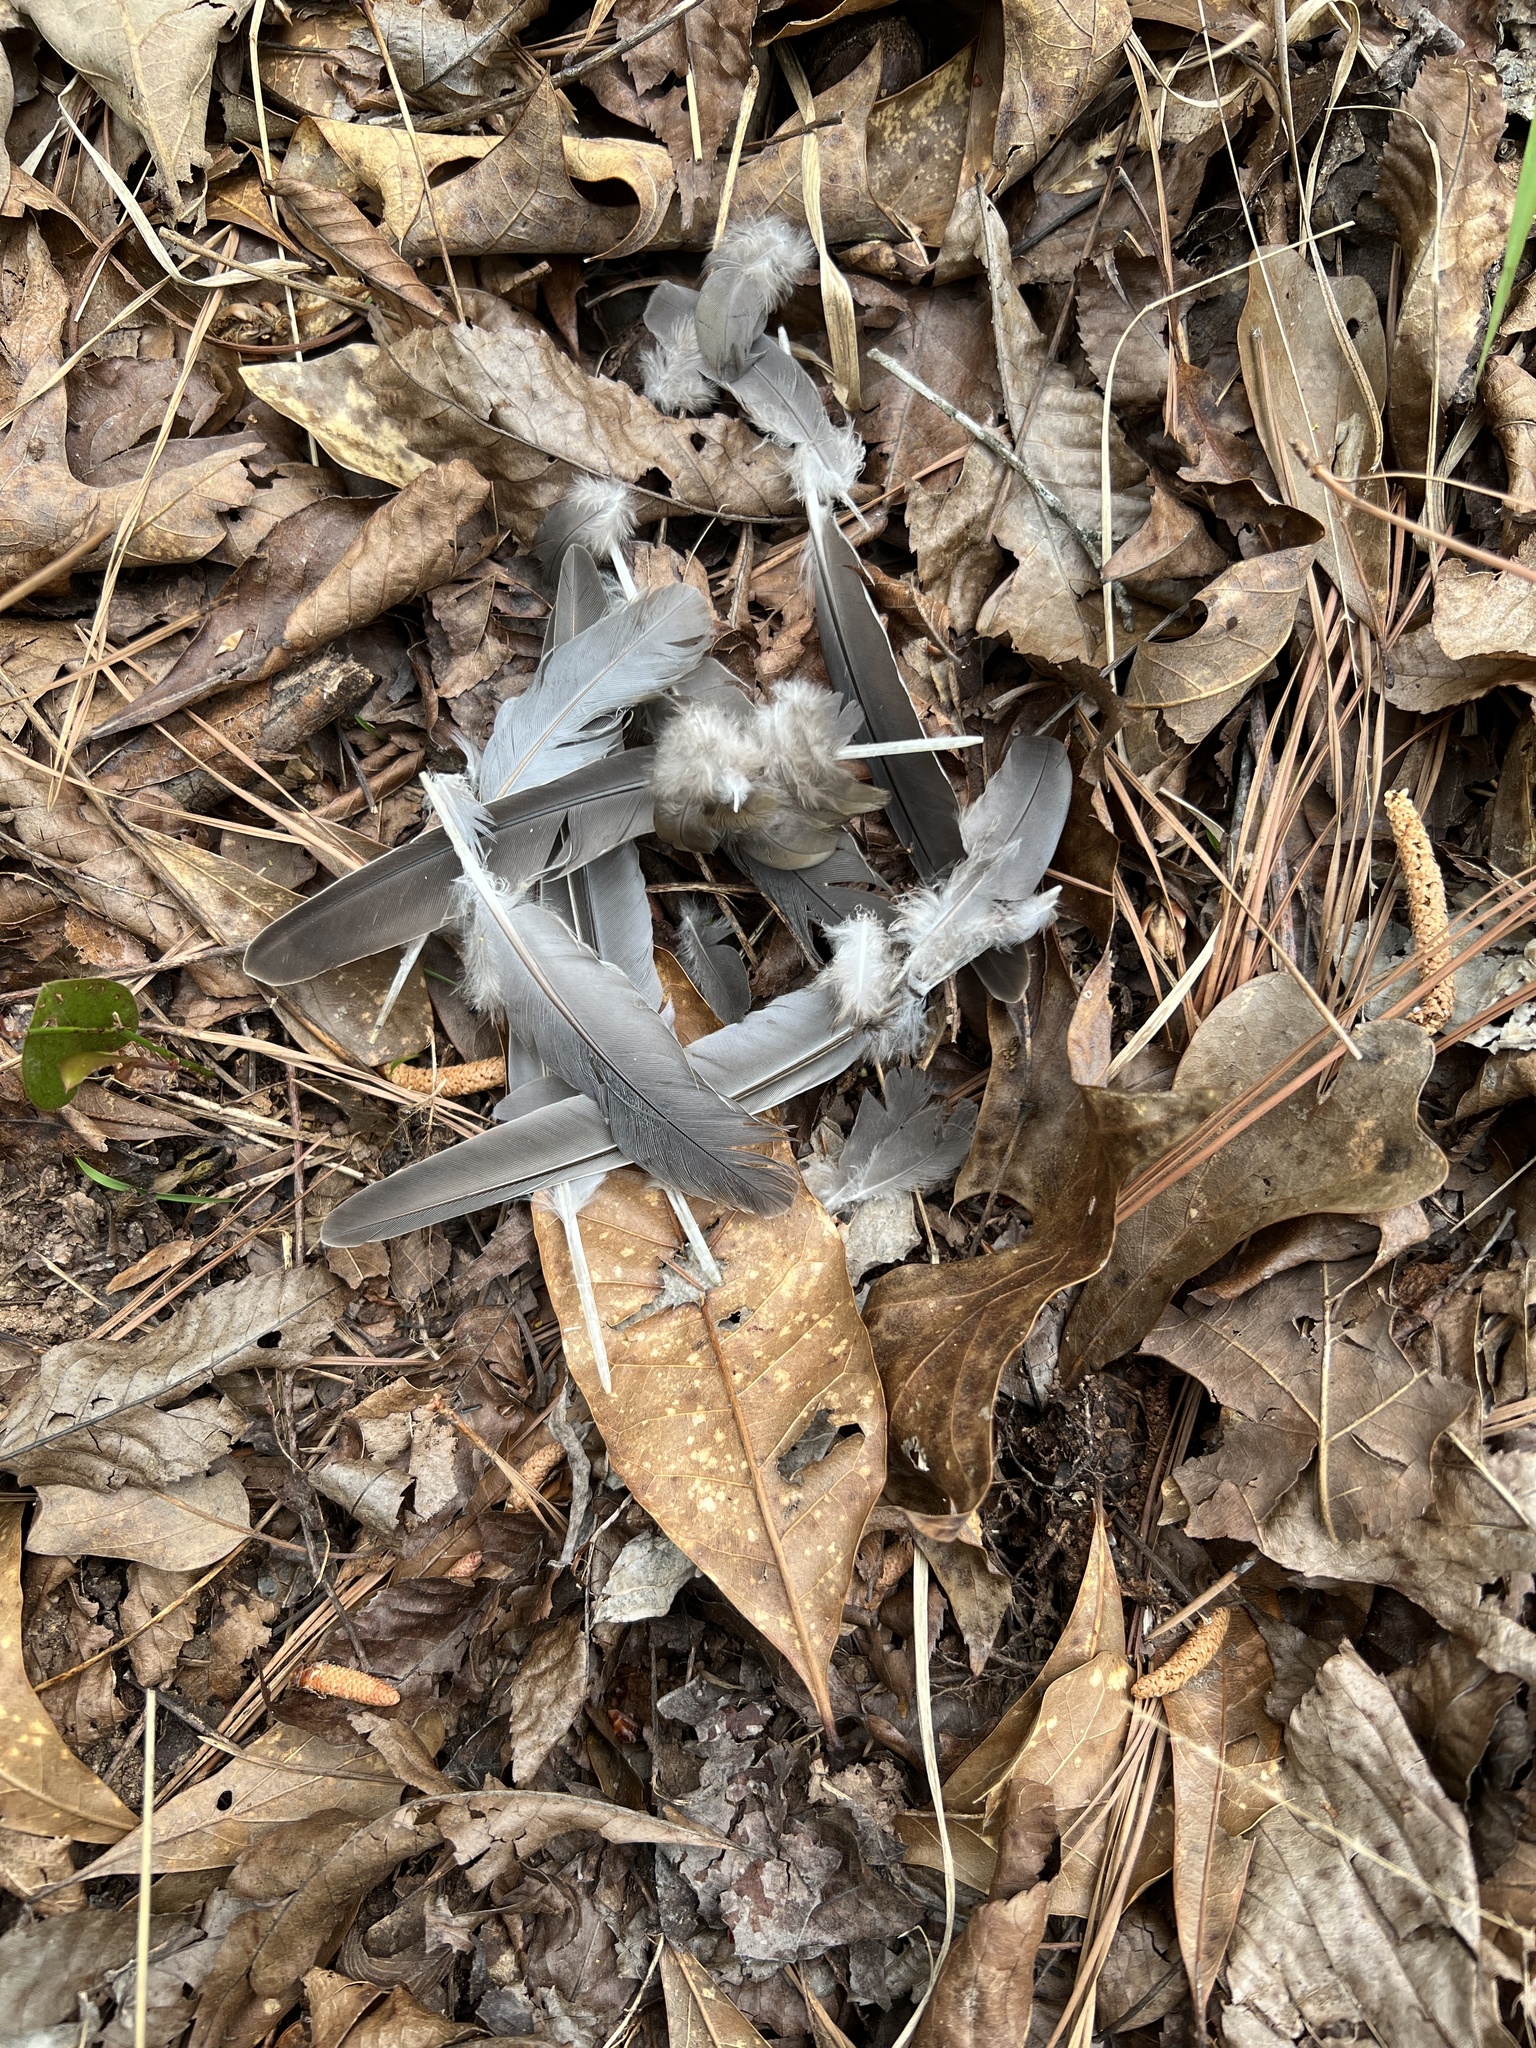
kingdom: Animalia
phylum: Chordata
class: Aves
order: Columbiformes
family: Columbidae
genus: Zenaida
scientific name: Zenaida macroura
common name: Mourning dove
